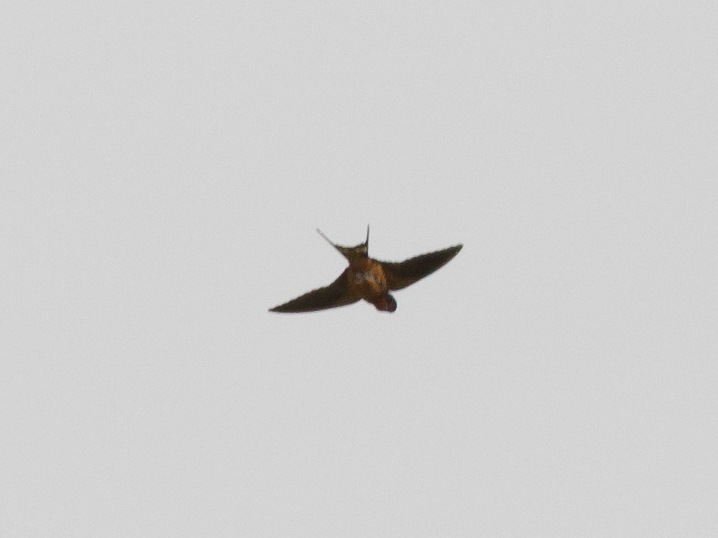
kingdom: Animalia
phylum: Chordata
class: Aves
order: Passeriformes
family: Hirundinidae
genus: Hirundo
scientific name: Hirundo rustica
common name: Barn swallow
